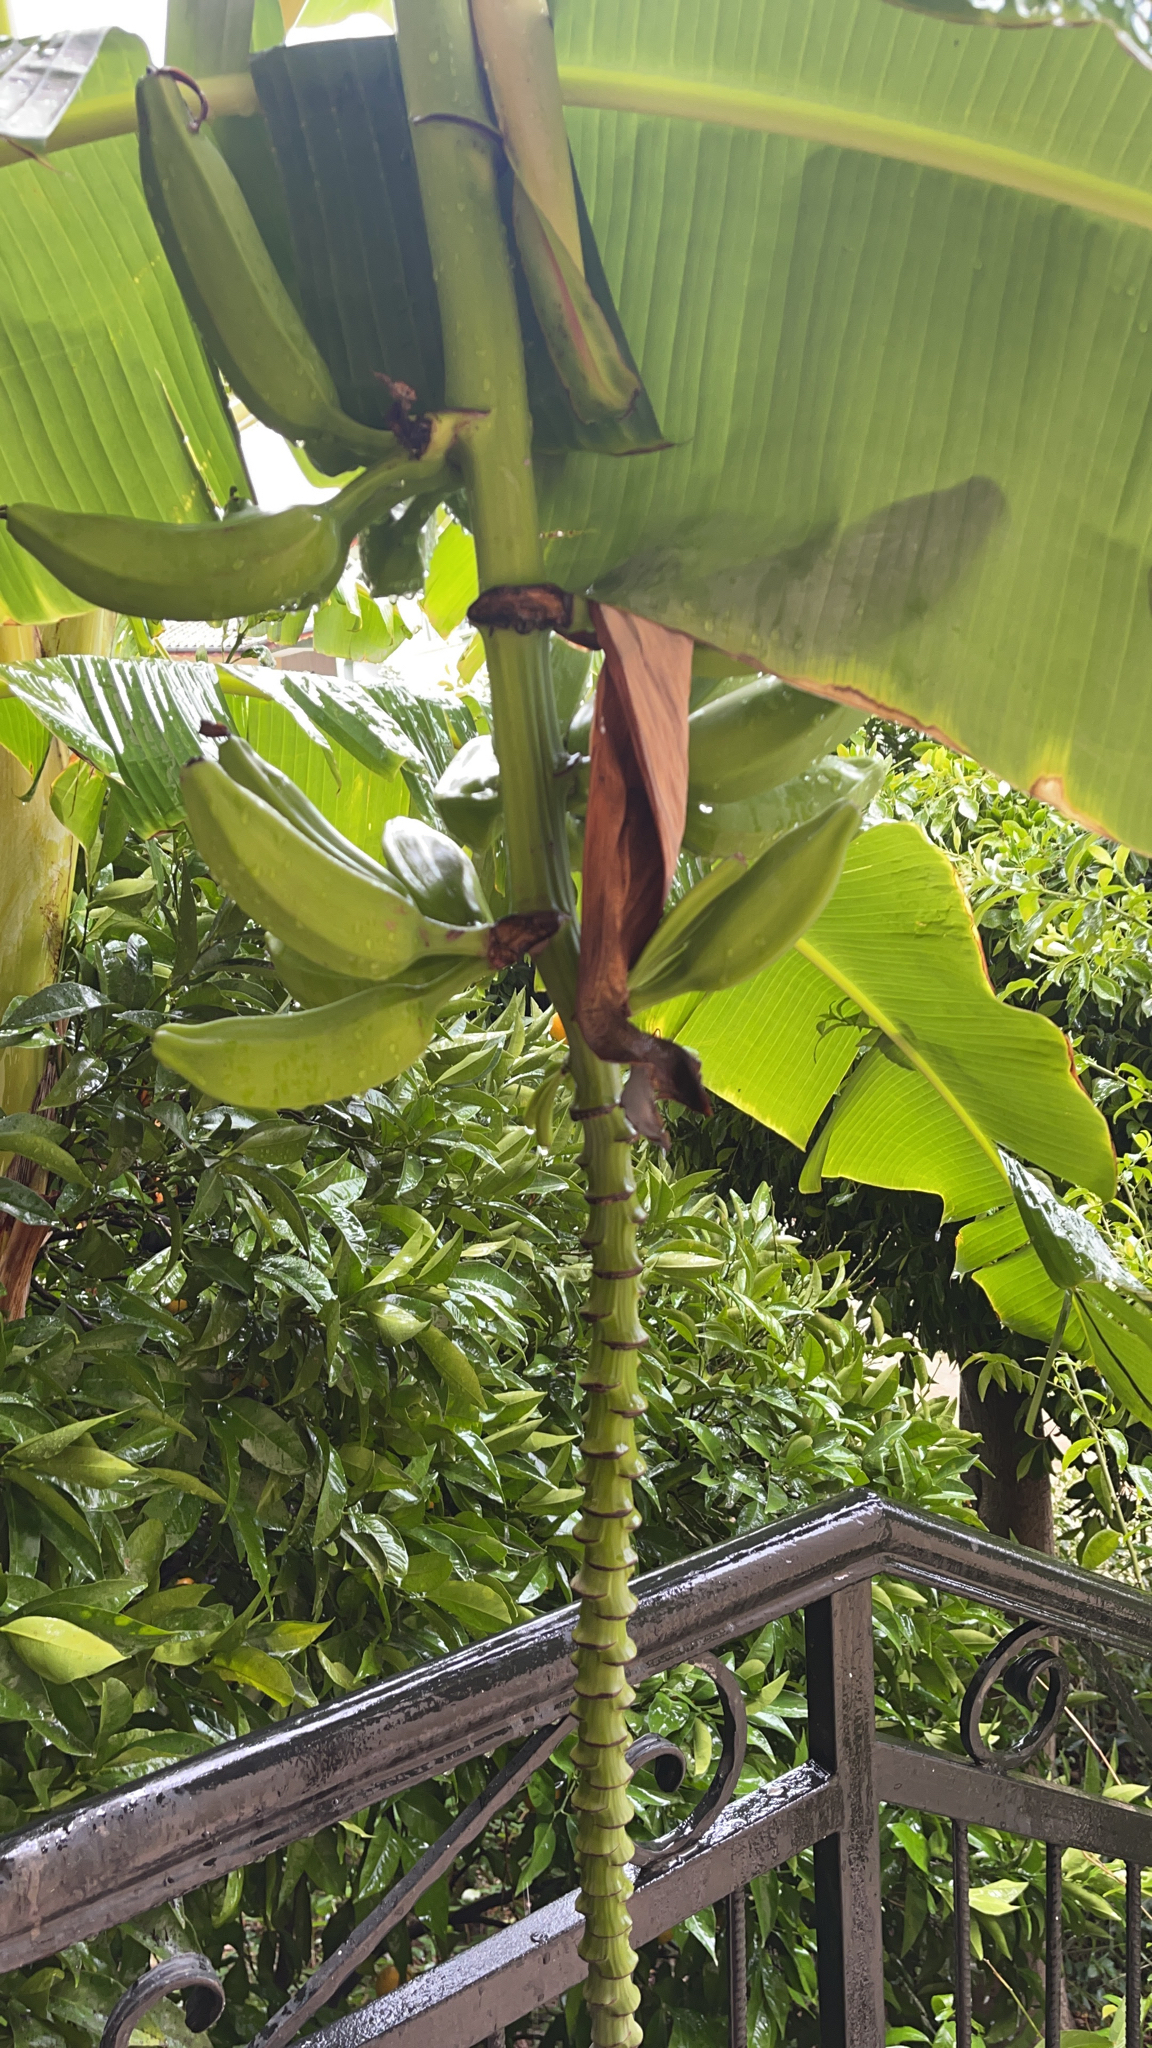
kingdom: Plantae
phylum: Tracheophyta
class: Liliopsida
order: Zingiberales
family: Musaceae
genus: Musa
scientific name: Musa paradisiaca
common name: French plantain
